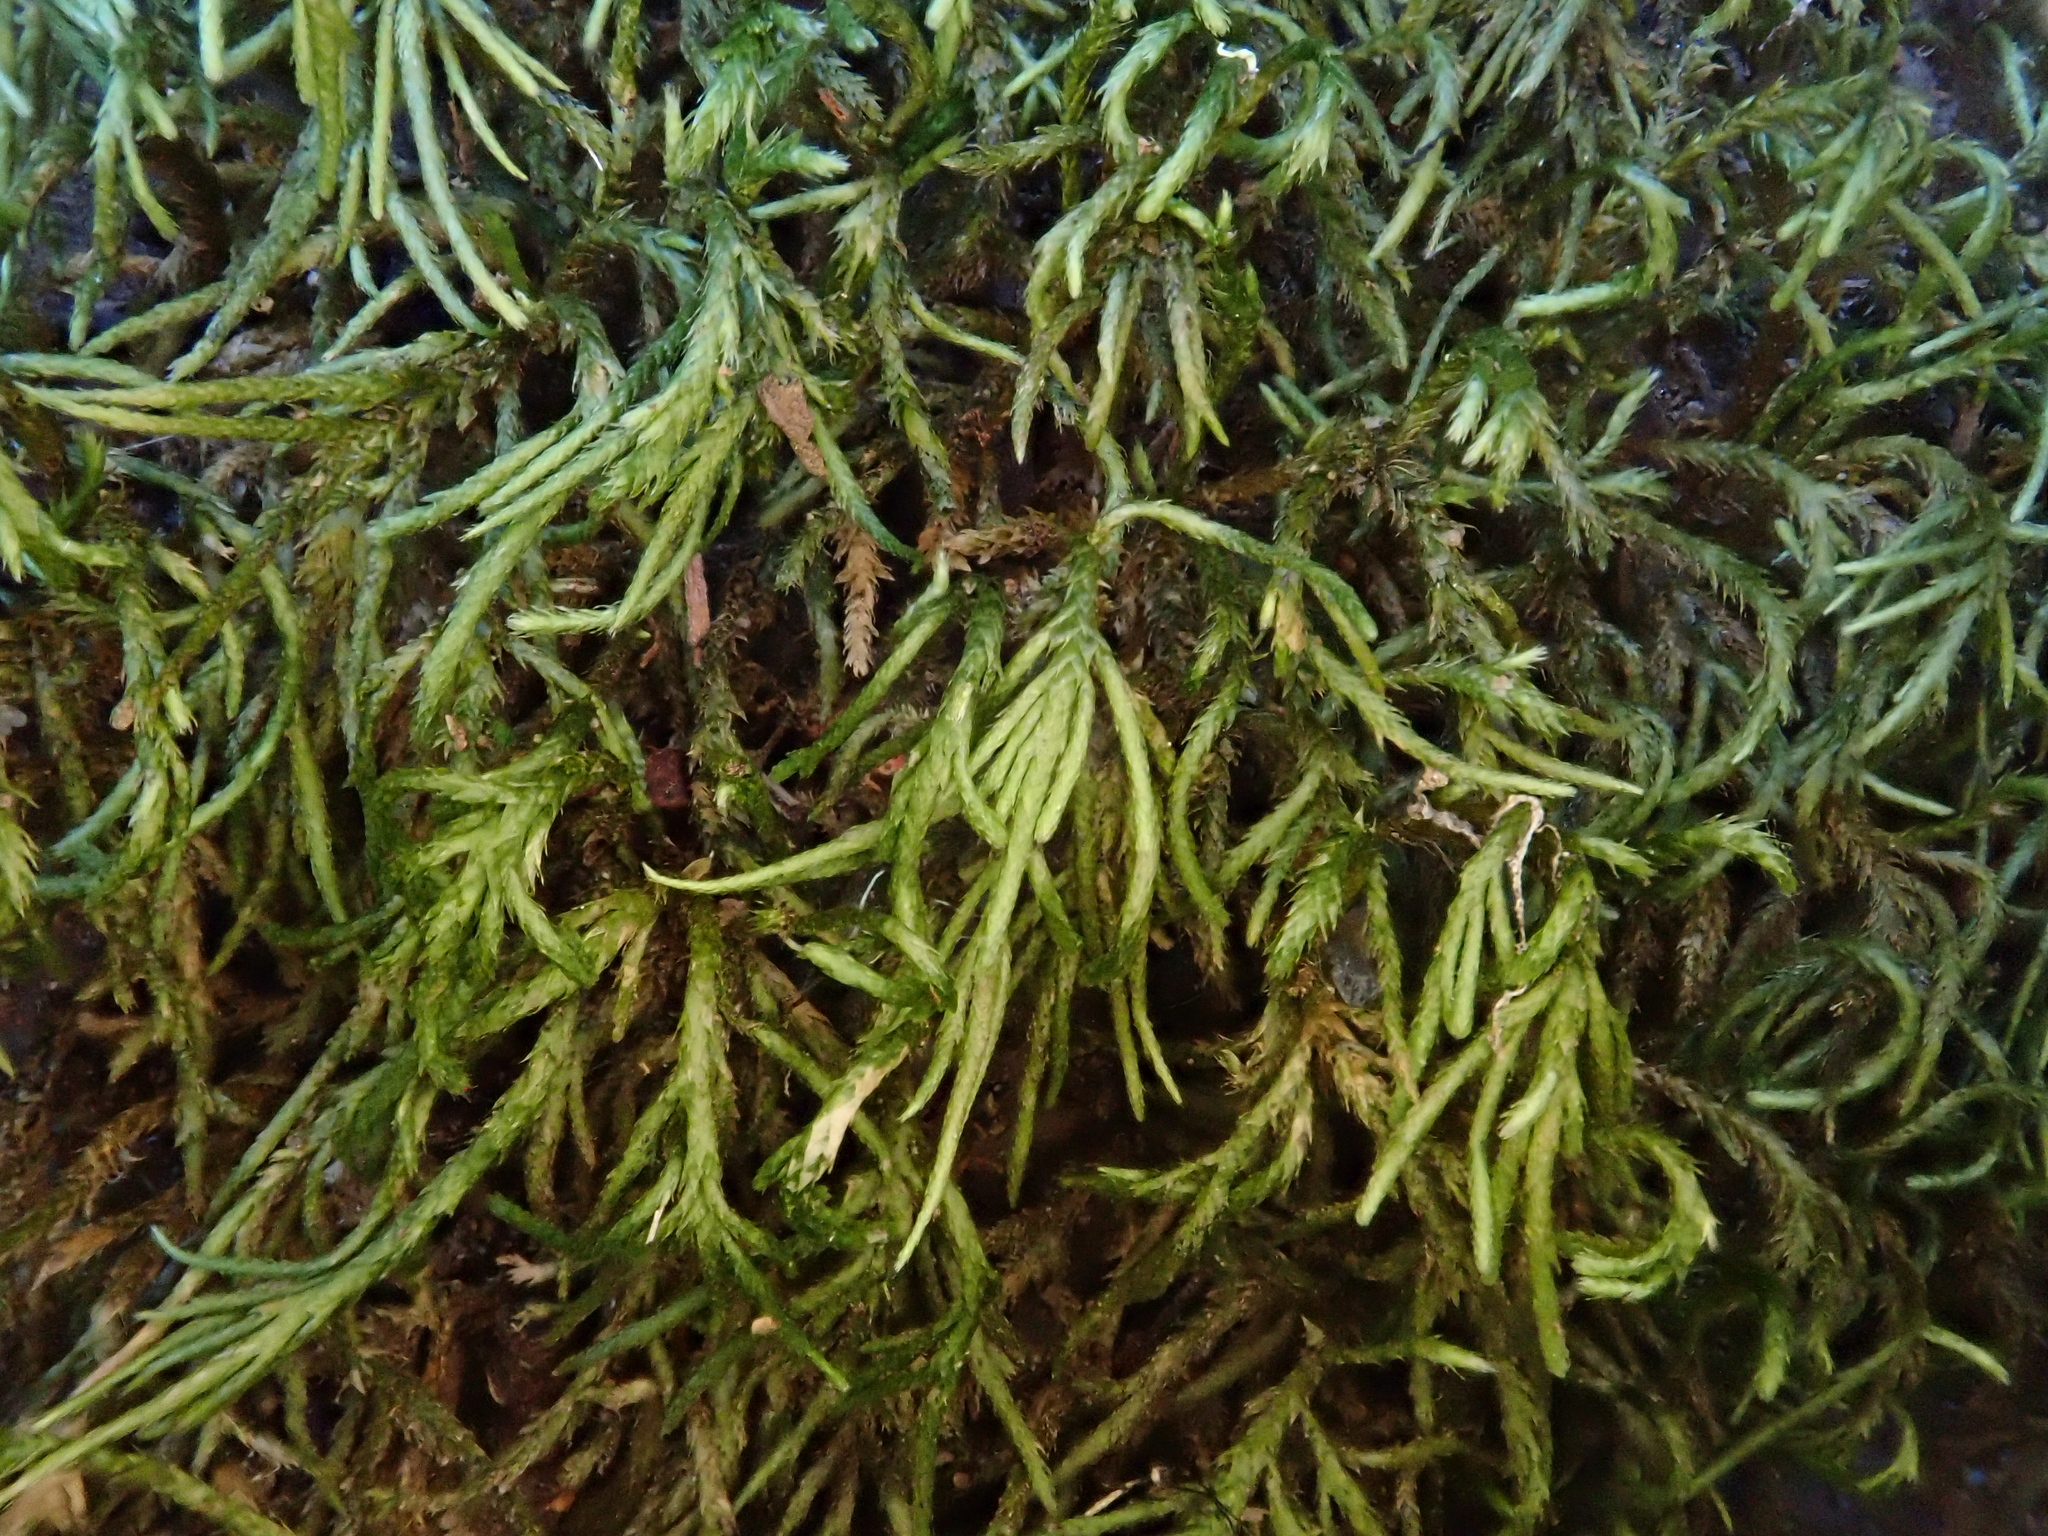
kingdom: Plantae
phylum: Bryophyta
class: Bryopsida
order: Hypnales
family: Lembophyllaceae
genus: Nogopterium
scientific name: Nogopterium gracile
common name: Bird's-foot wing-moss
